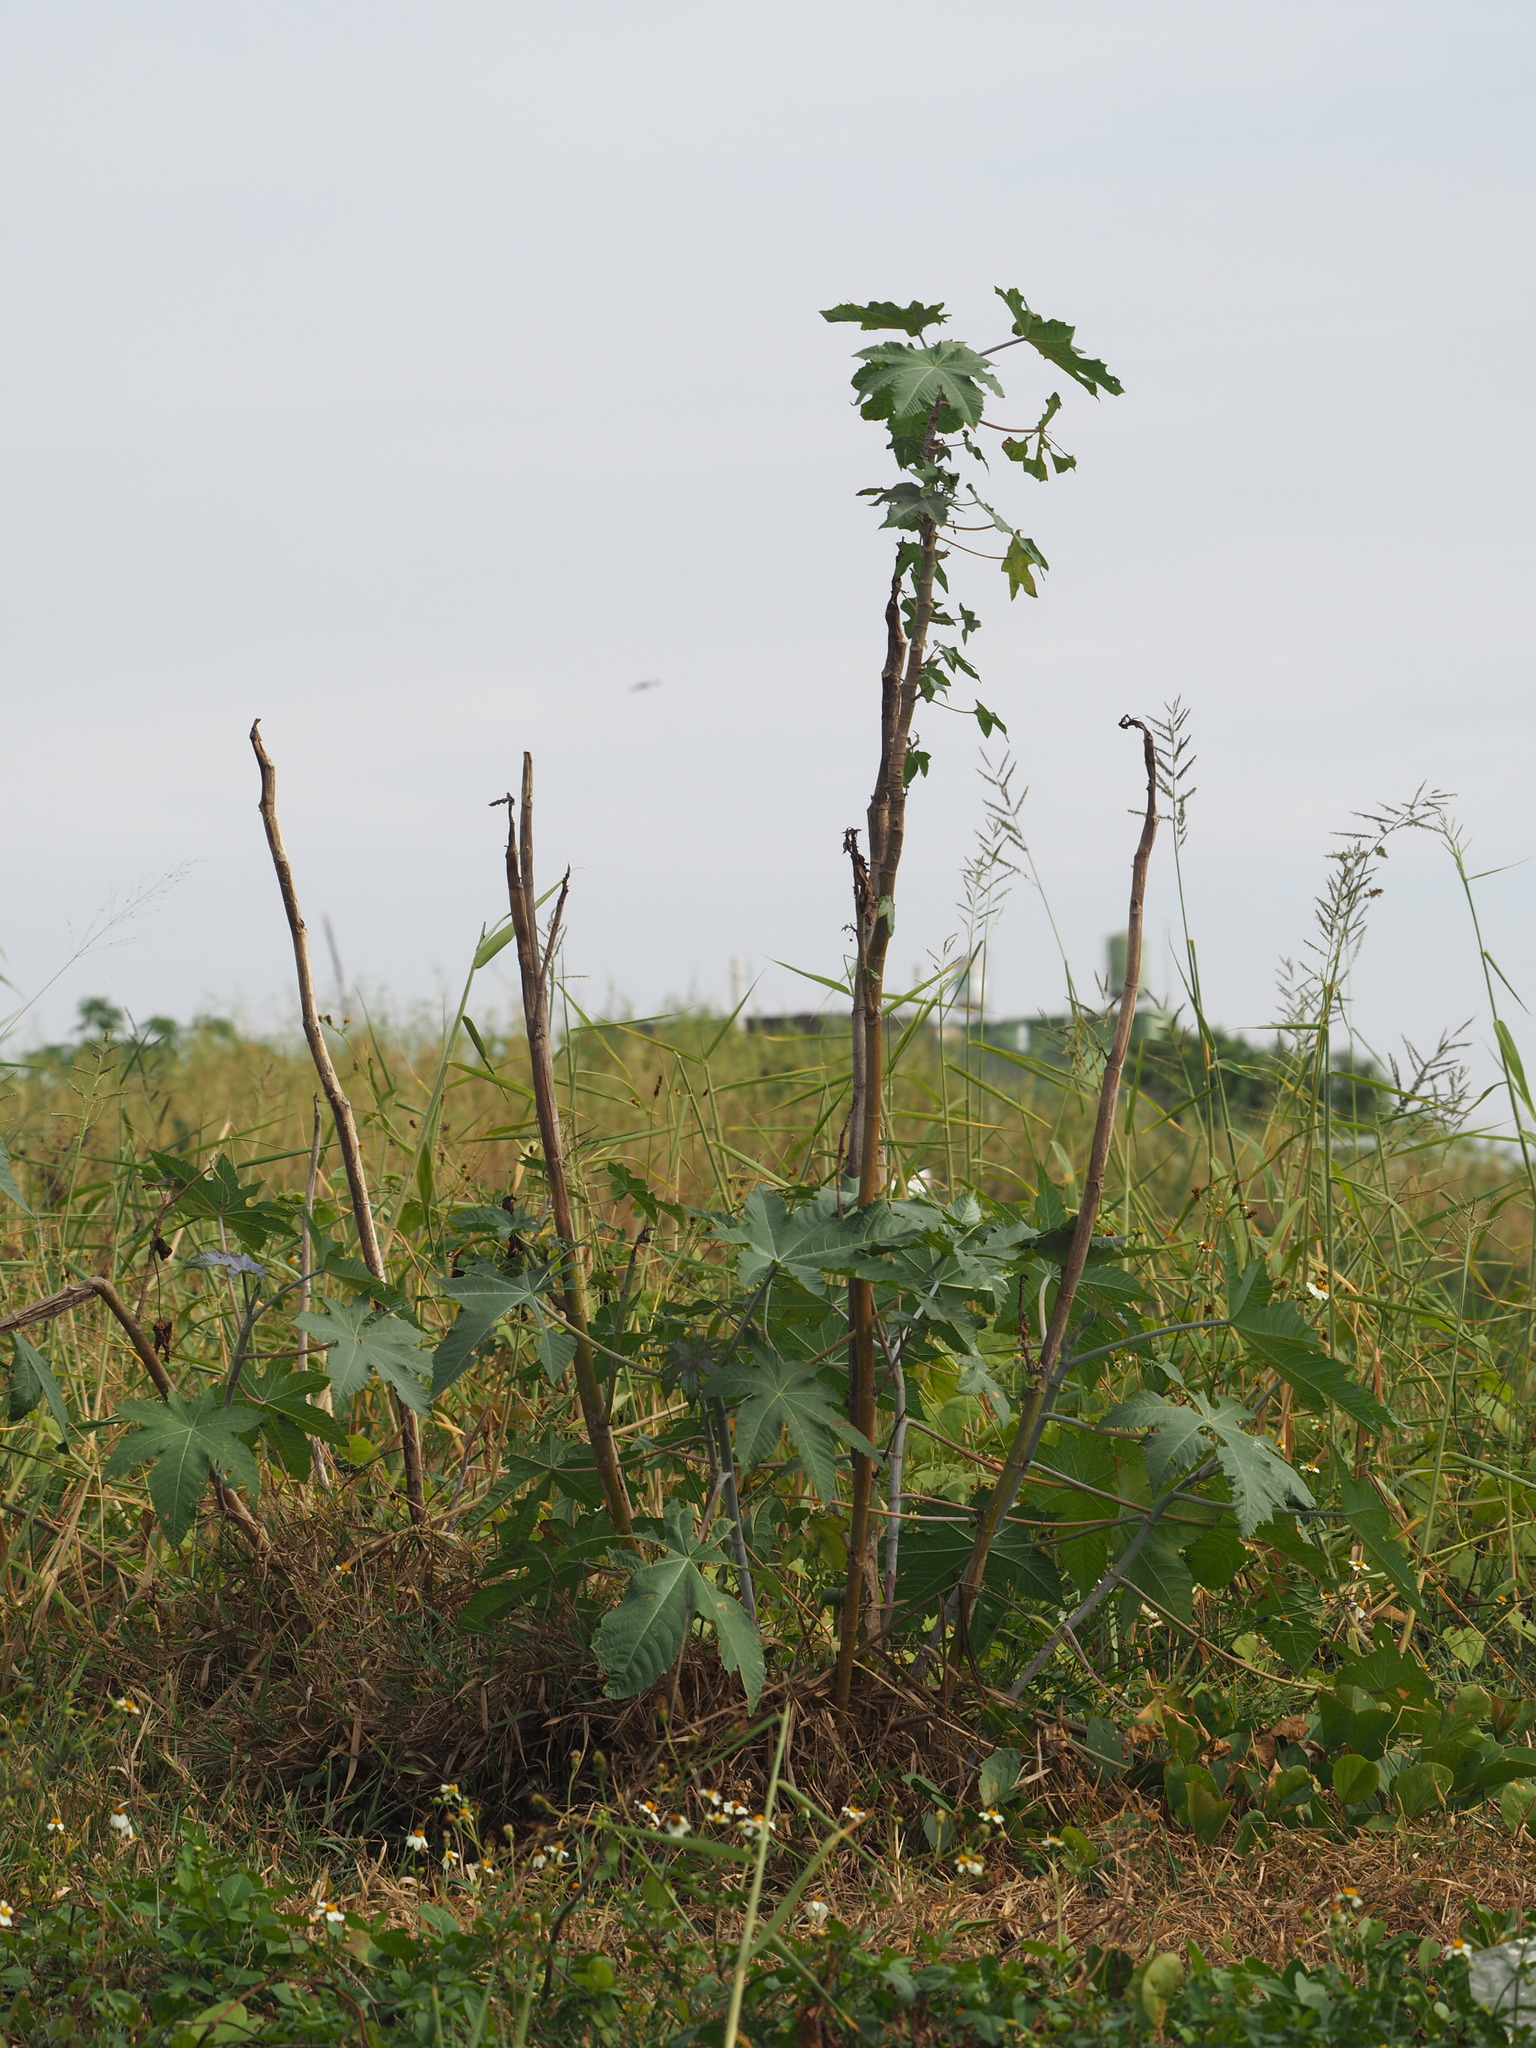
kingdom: Plantae
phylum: Tracheophyta
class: Magnoliopsida
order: Malpighiales
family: Euphorbiaceae
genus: Ricinus
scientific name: Ricinus communis
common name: Castor-oil-plant
